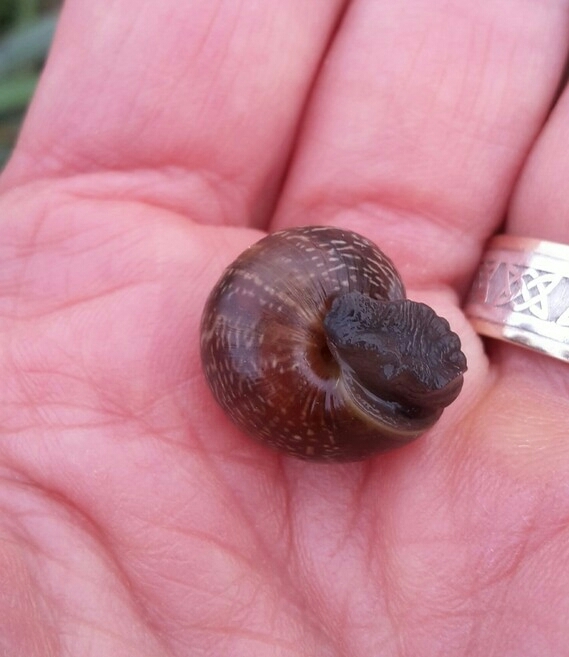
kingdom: Animalia
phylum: Mollusca
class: Gastropoda
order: Stylommatophora
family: Helicidae
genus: Arianta
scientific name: Arianta arbustorum
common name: Copse snail
